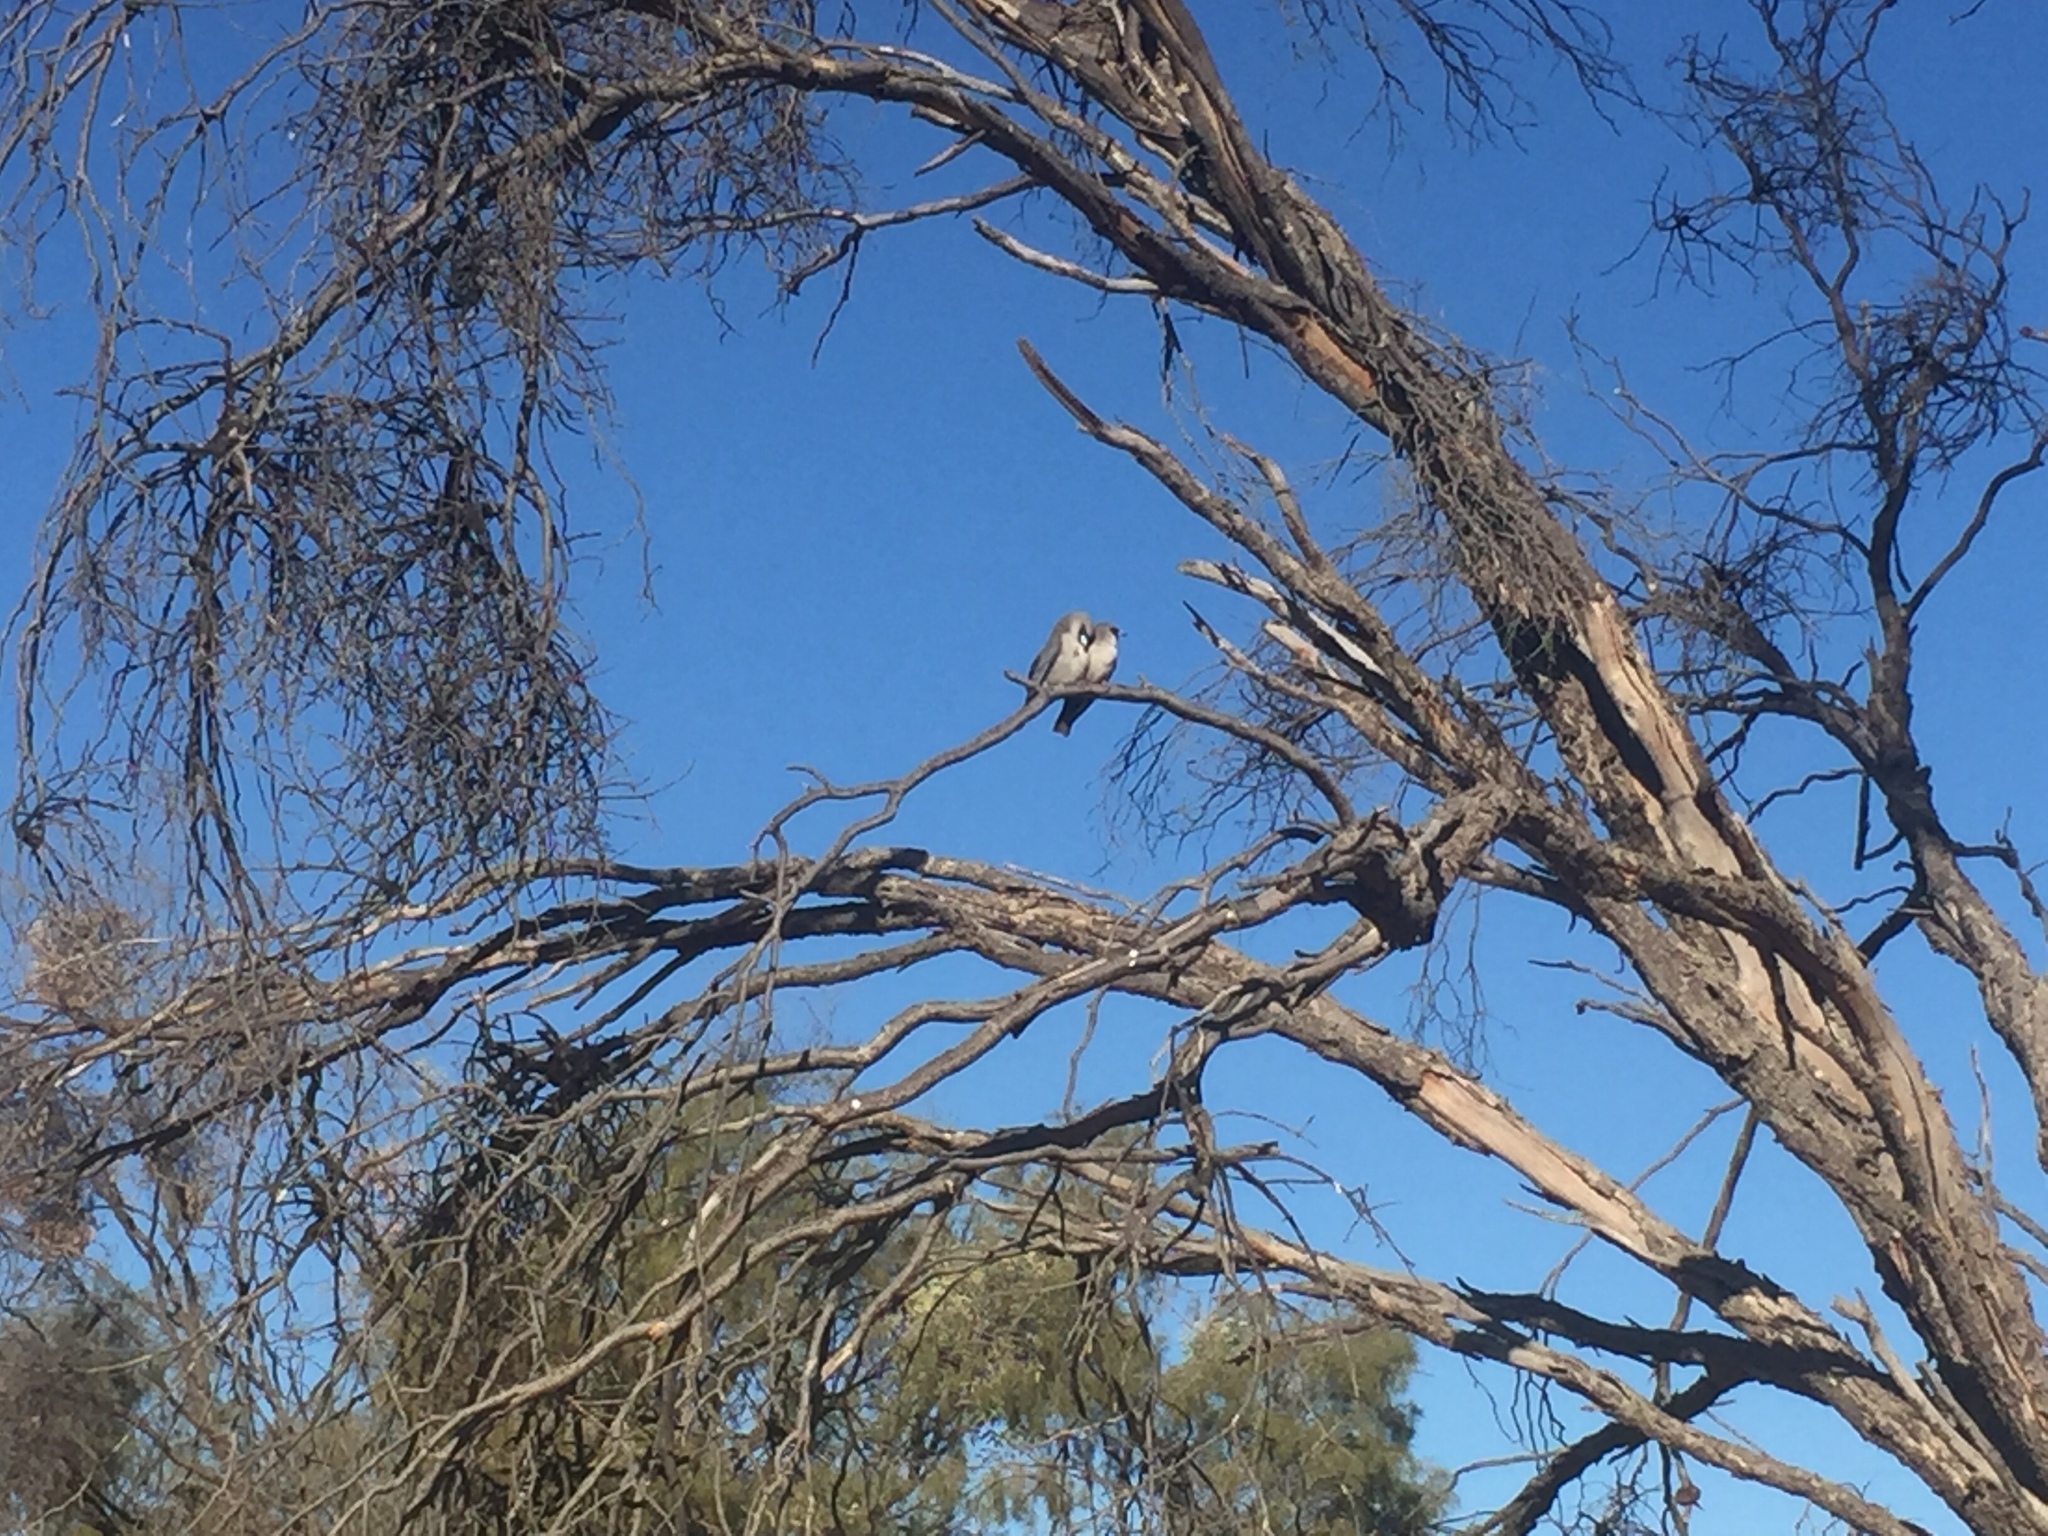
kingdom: Animalia
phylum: Chordata
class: Aves
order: Passeriformes
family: Artamidae
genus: Artamus
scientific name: Artamus cinereus
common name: Black-faced woodswallow
